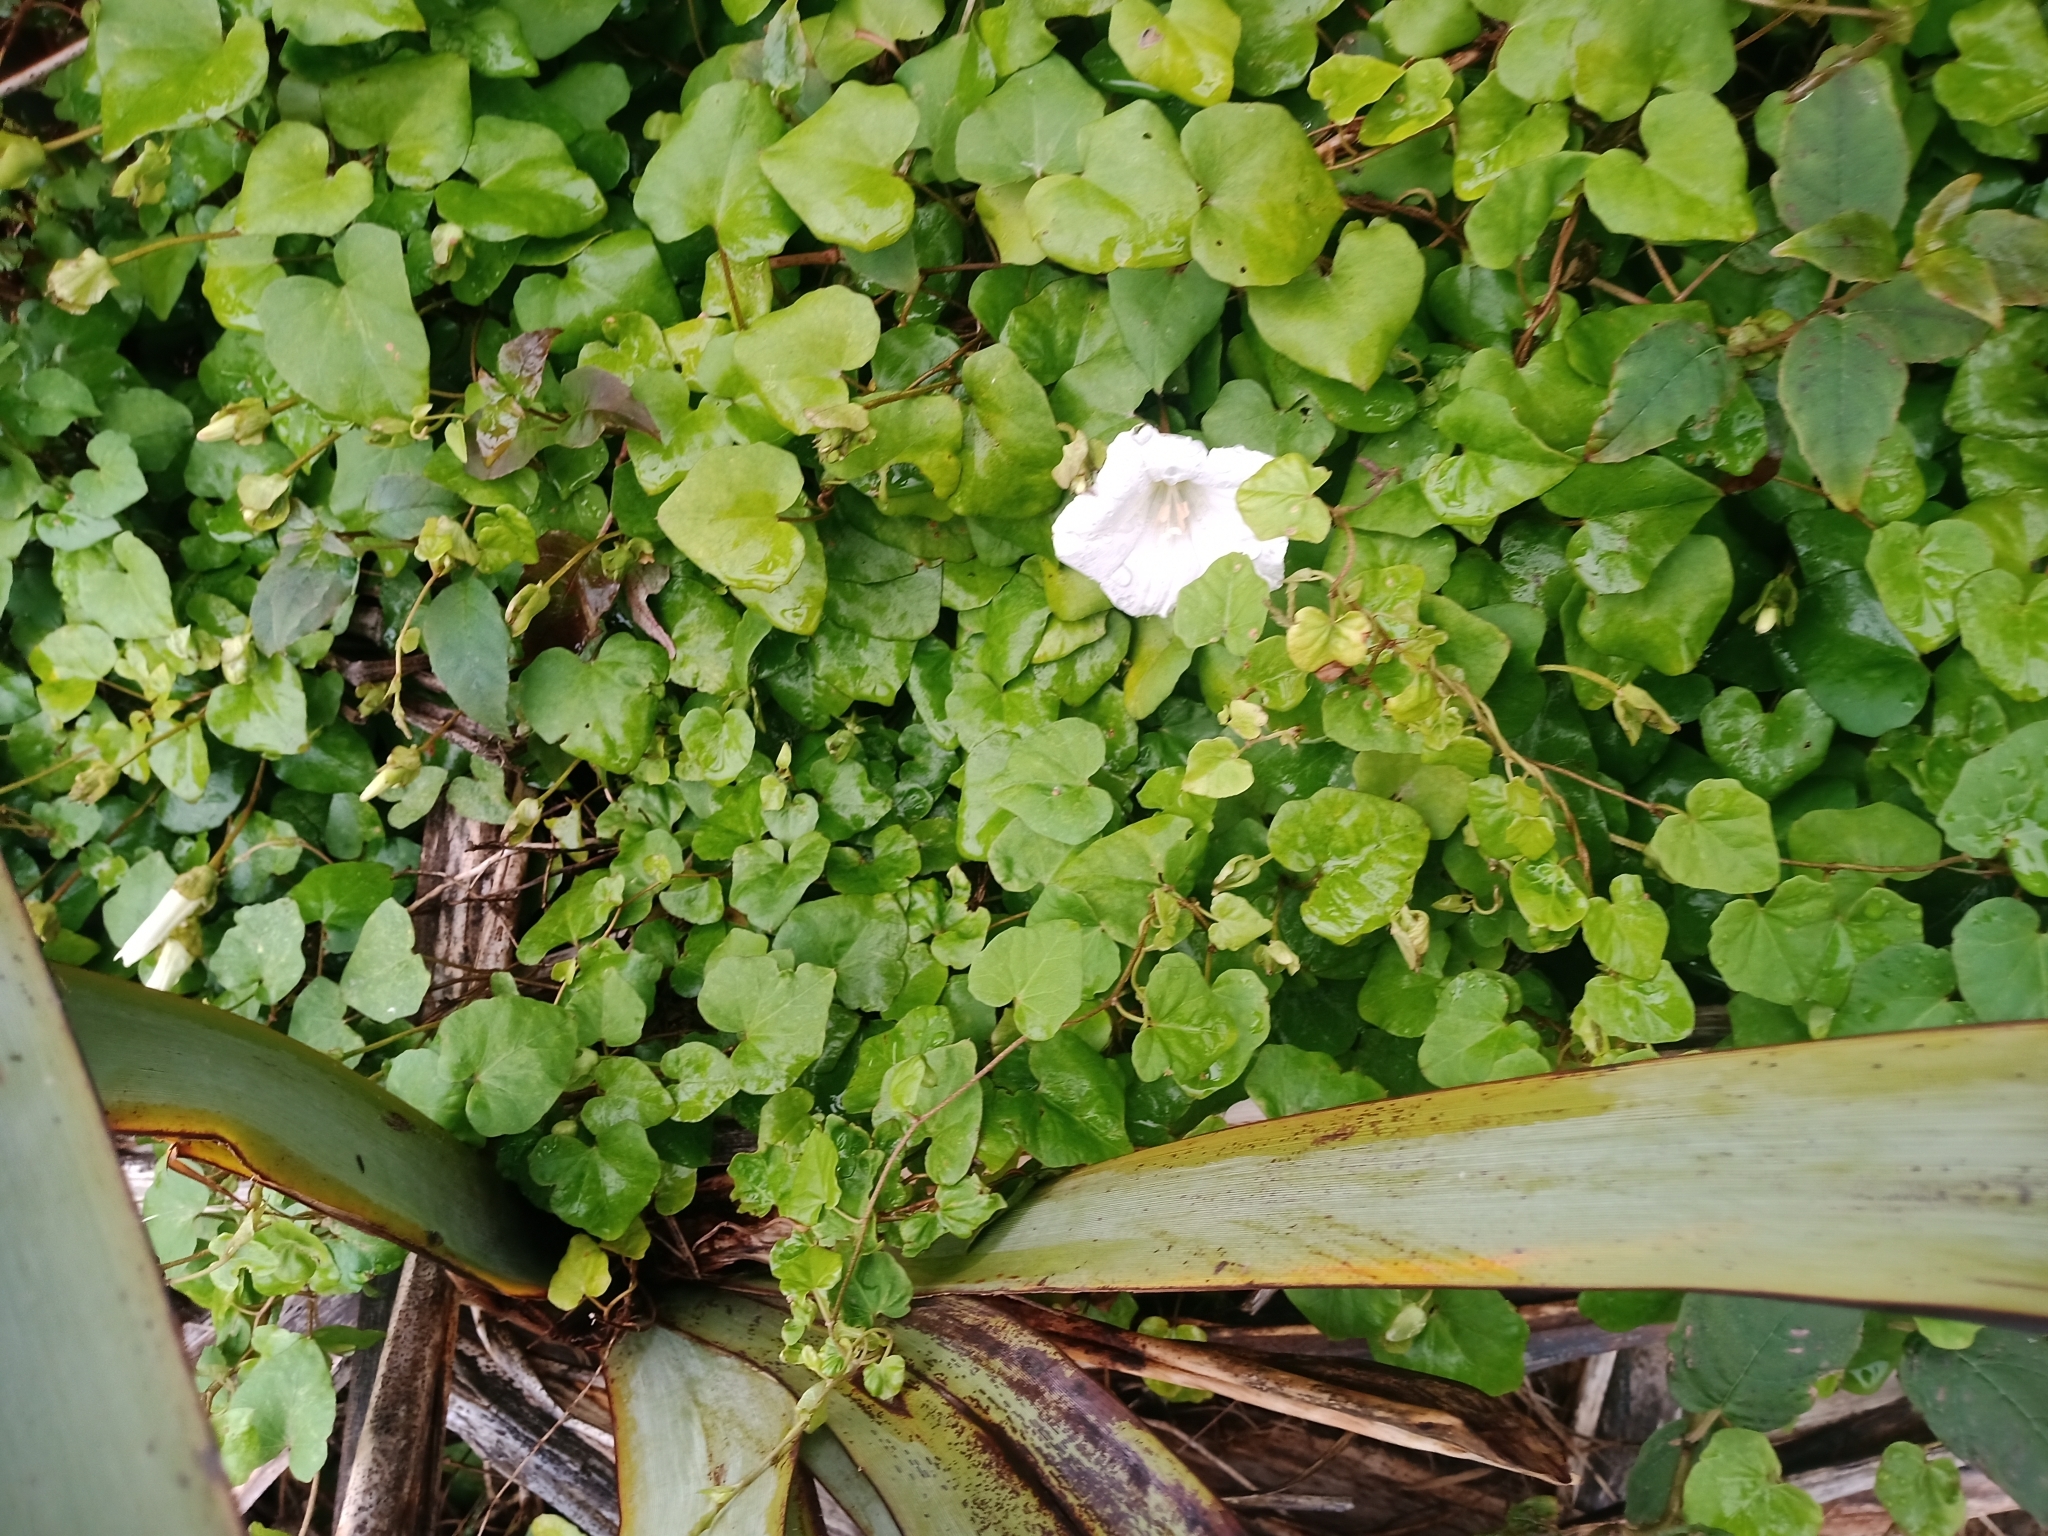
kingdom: Plantae
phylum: Tracheophyta
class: Magnoliopsida
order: Solanales
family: Convolvulaceae
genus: Calystegia
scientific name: Calystegia tuguriorum
